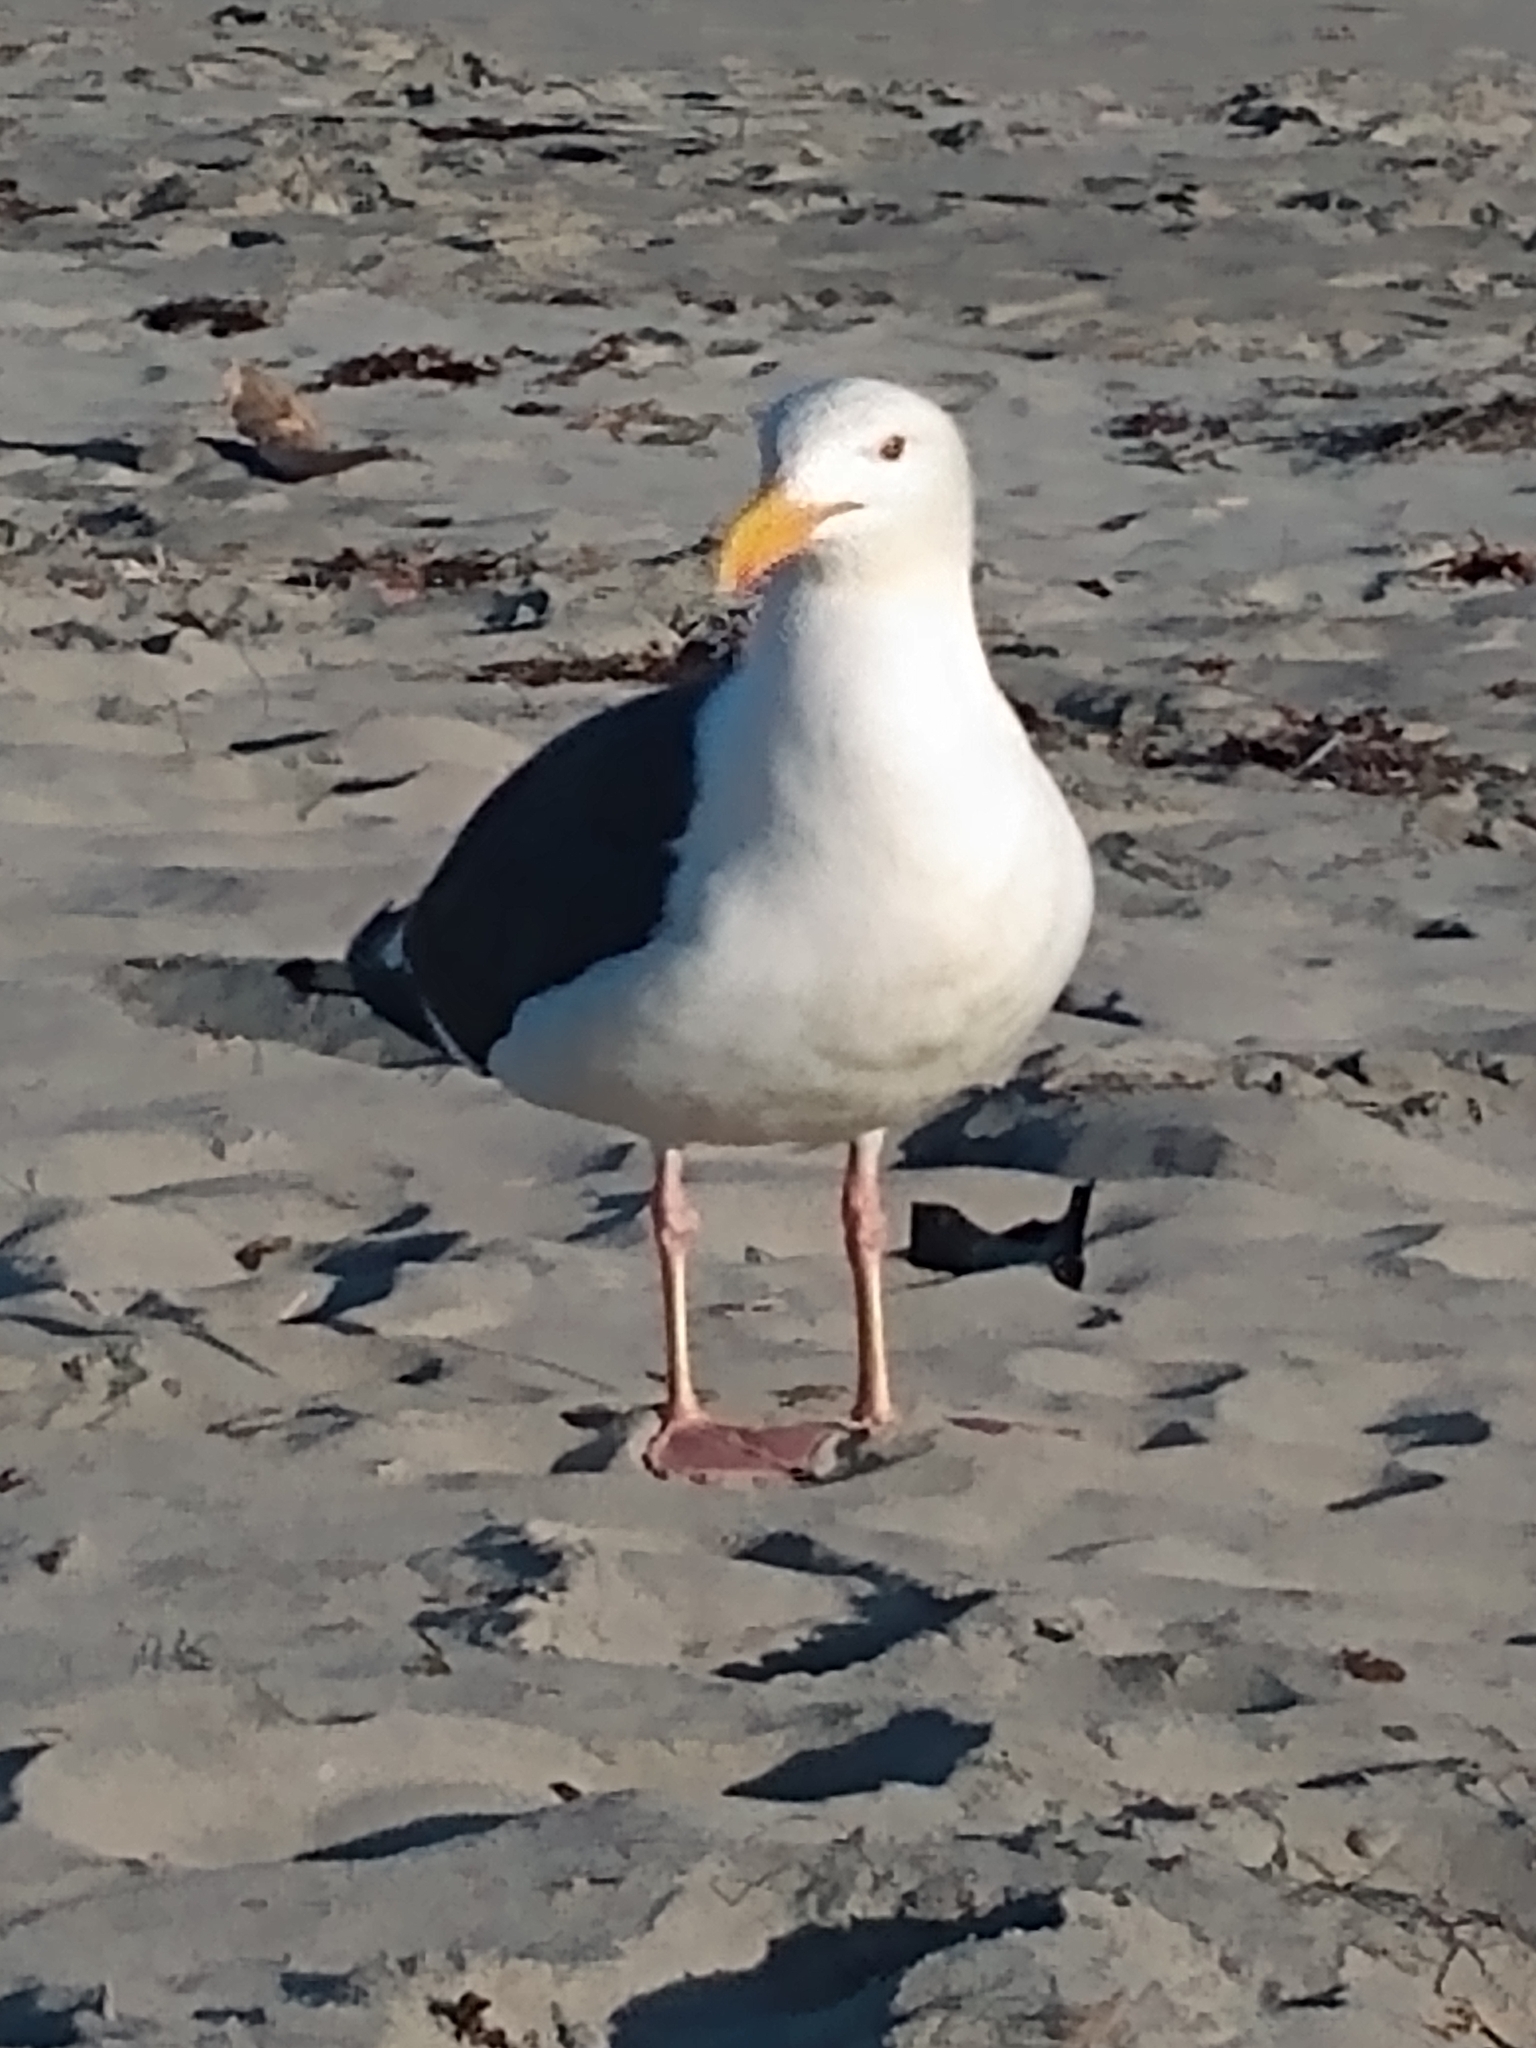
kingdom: Animalia
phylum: Chordata
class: Aves
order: Charadriiformes
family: Laridae
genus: Larus
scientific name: Larus occidentalis
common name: Western gull
